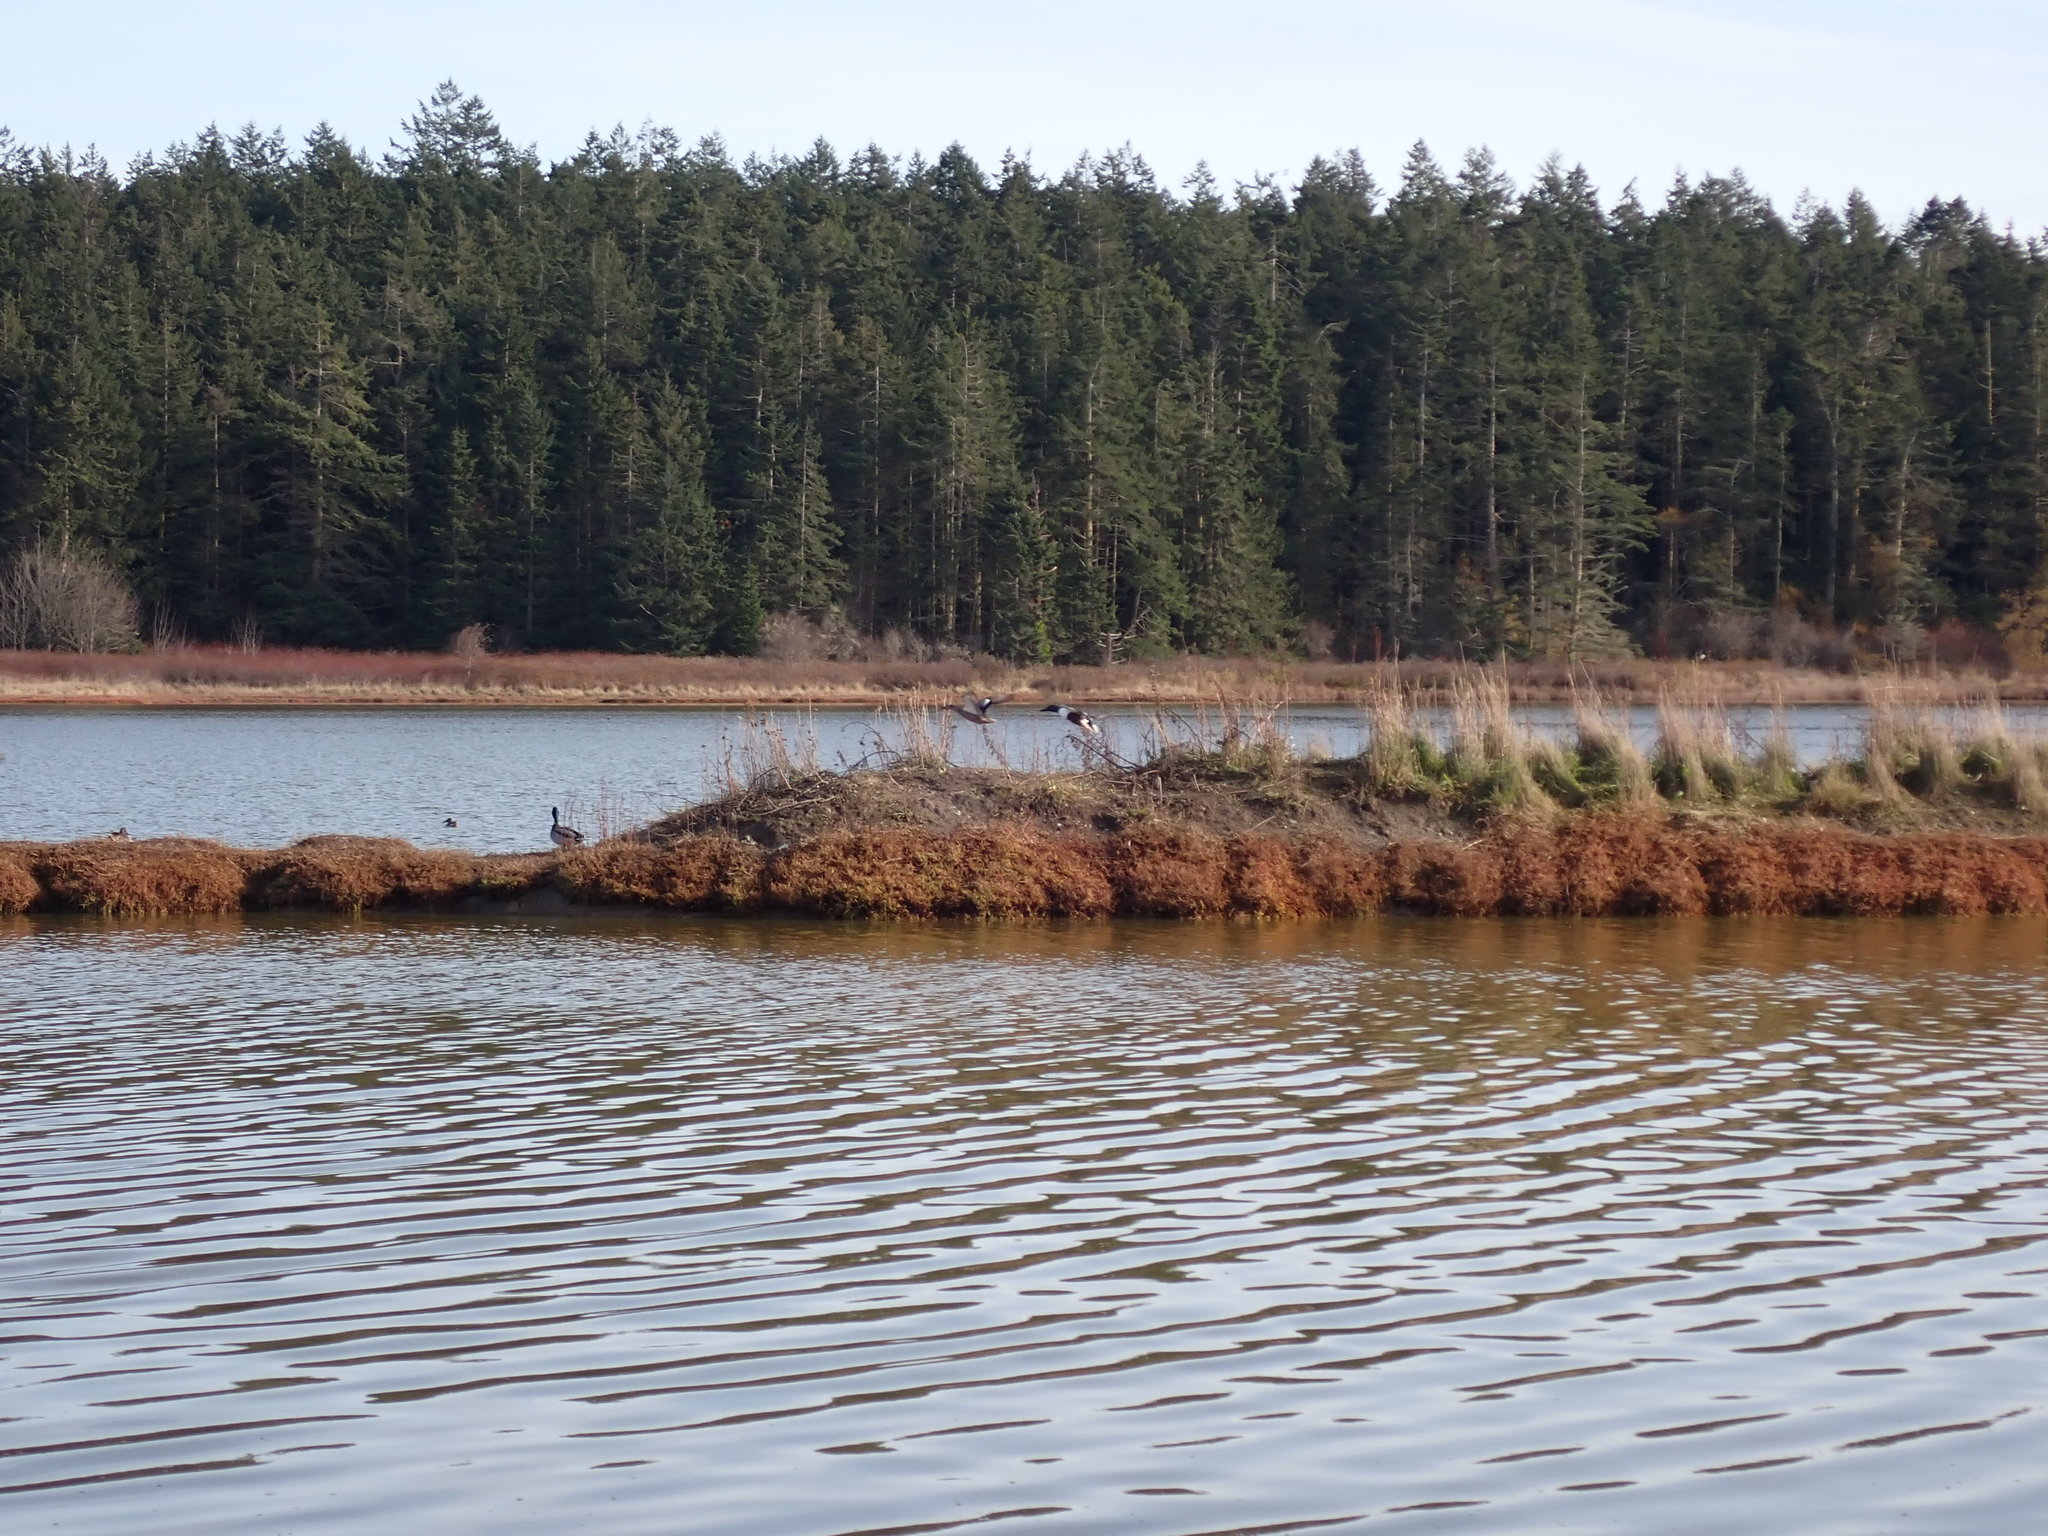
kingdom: Animalia
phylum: Chordata
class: Aves
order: Anseriformes
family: Anatidae
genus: Anas
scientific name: Anas platyrhynchos
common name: Mallard
